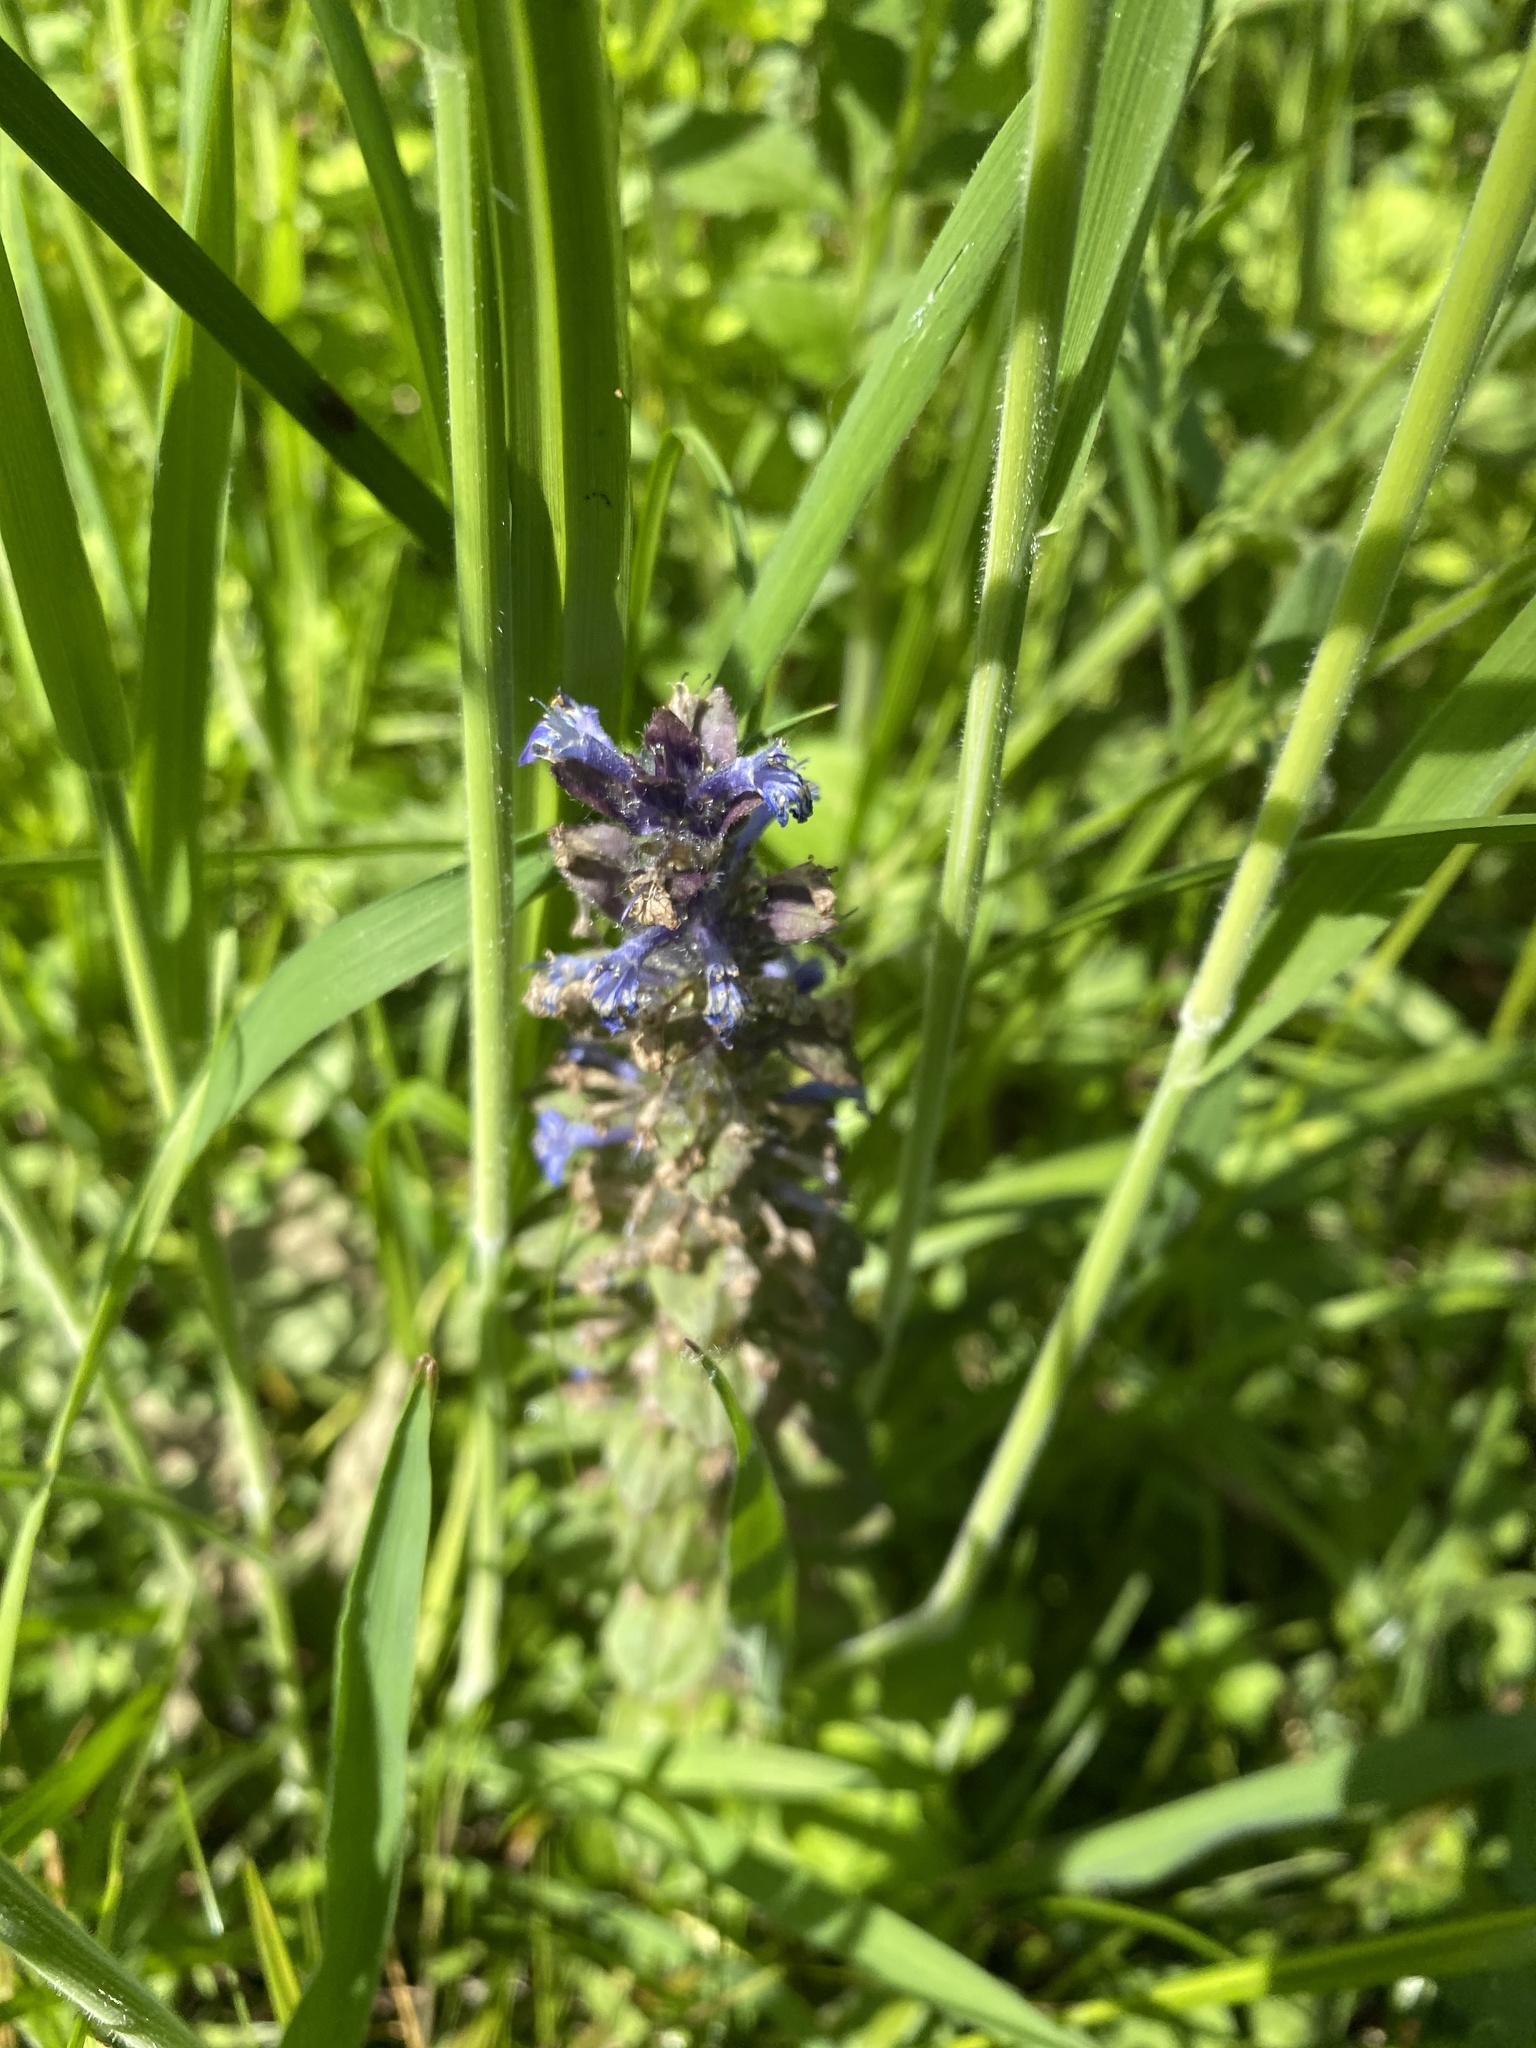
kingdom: Plantae
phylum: Tracheophyta
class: Magnoliopsida
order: Lamiales
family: Lamiaceae
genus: Ajuga
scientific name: Ajuga reptans
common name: Bugle
